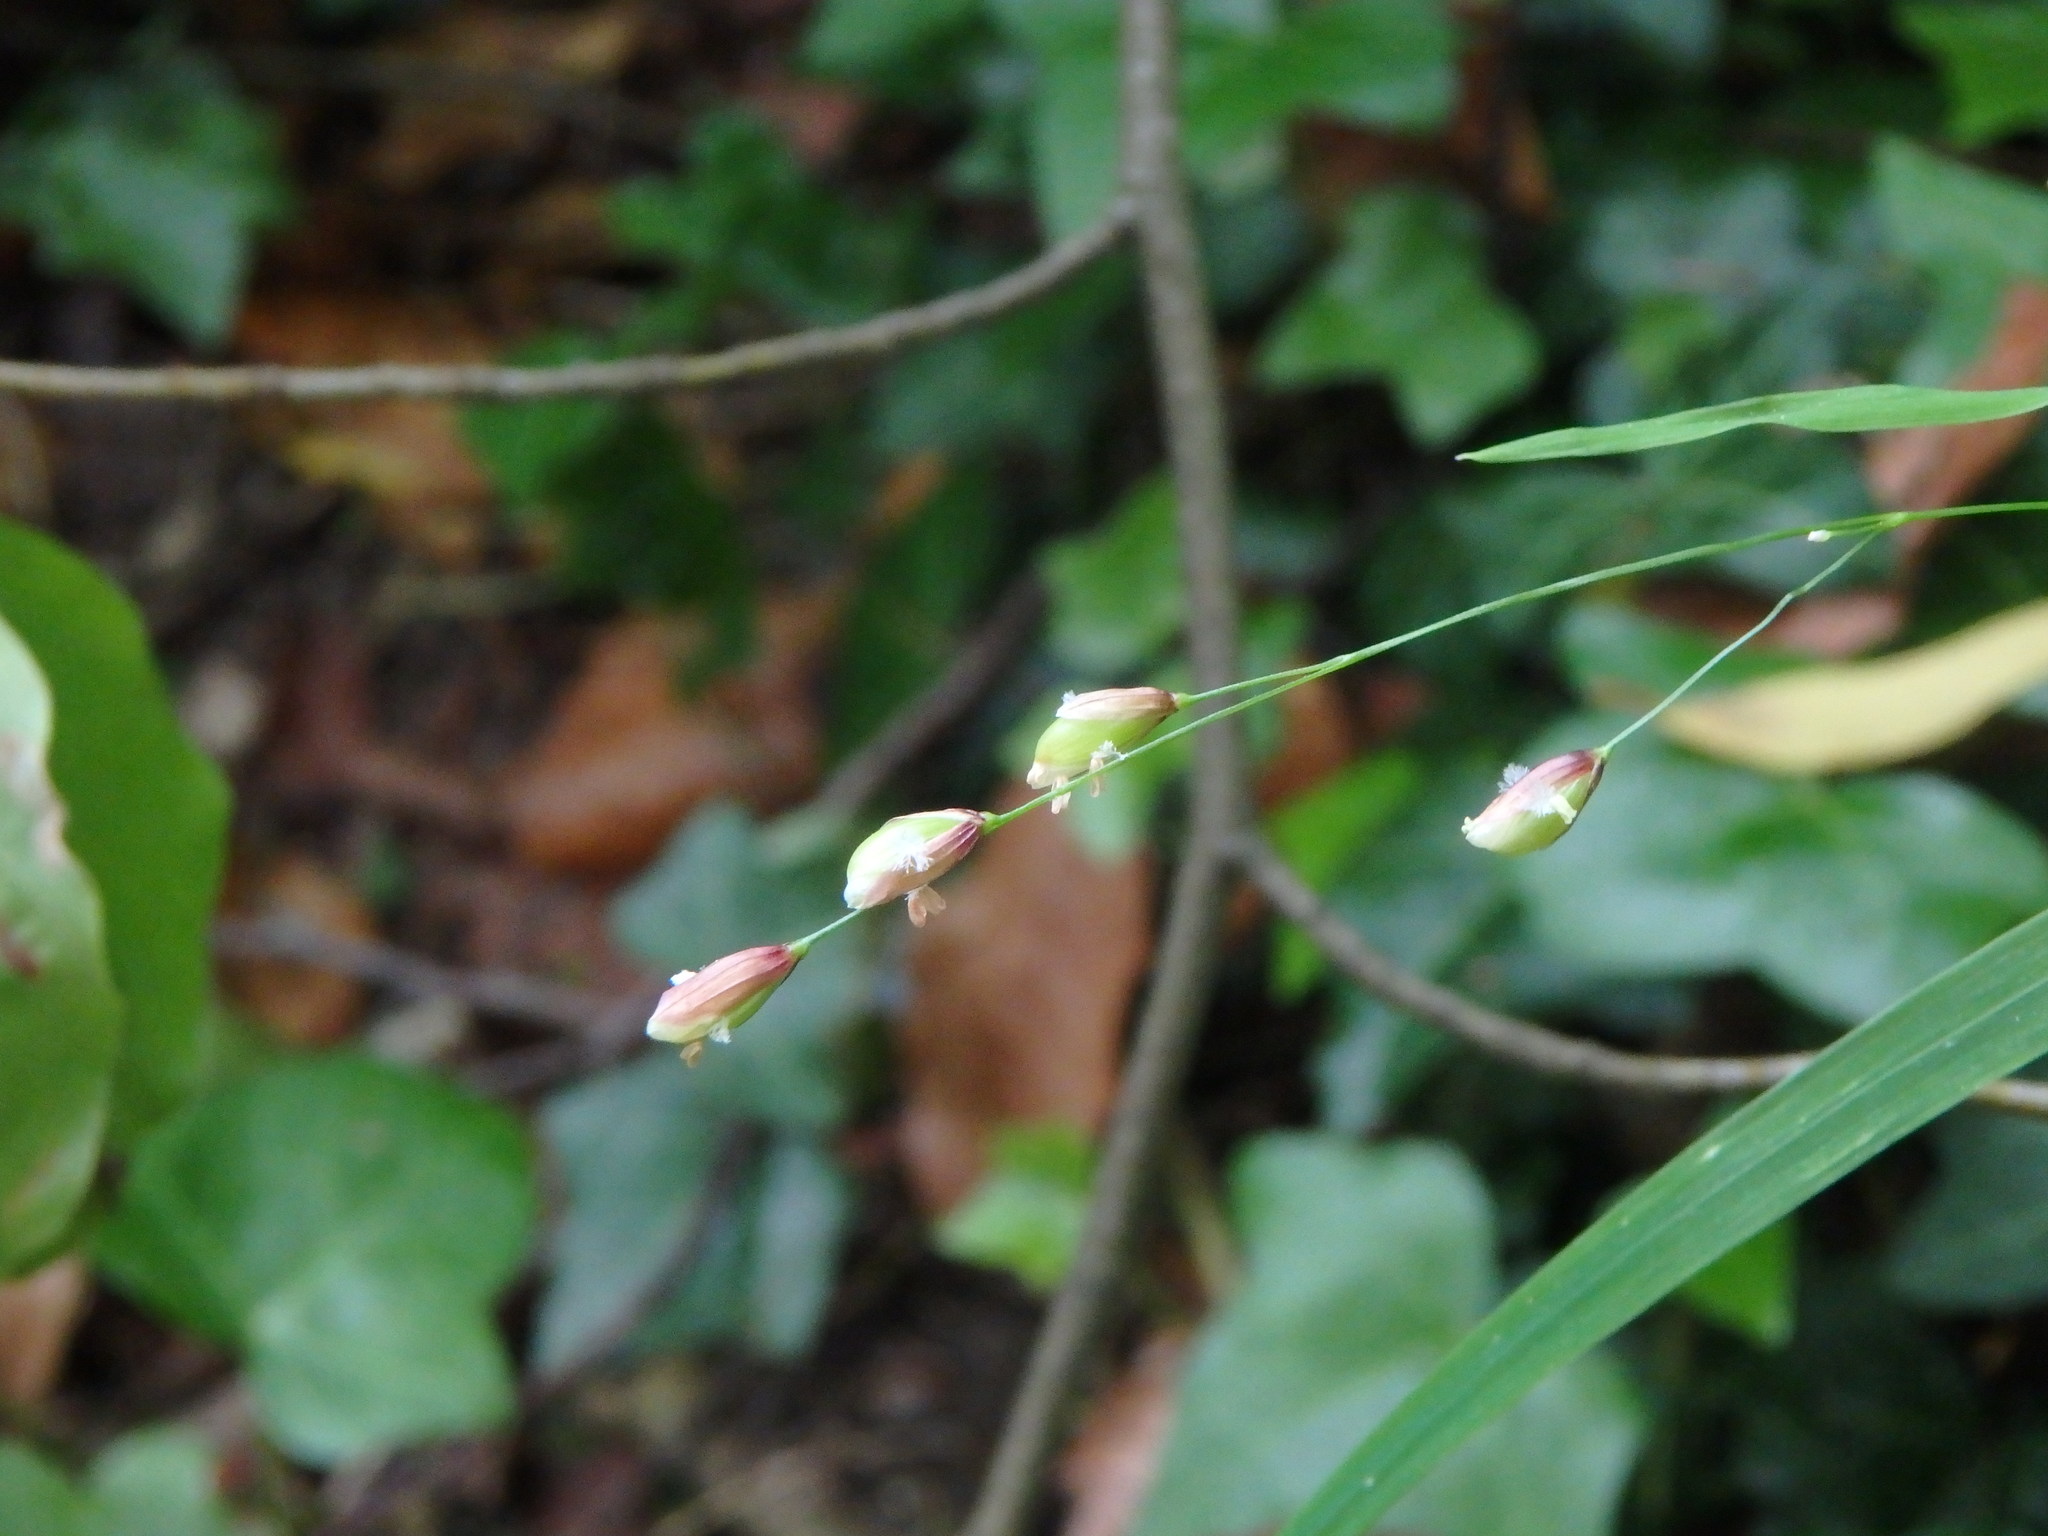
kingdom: Plantae
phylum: Tracheophyta
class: Liliopsida
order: Poales
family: Poaceae
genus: Melica
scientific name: Melica uniflora
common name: Wood melick
